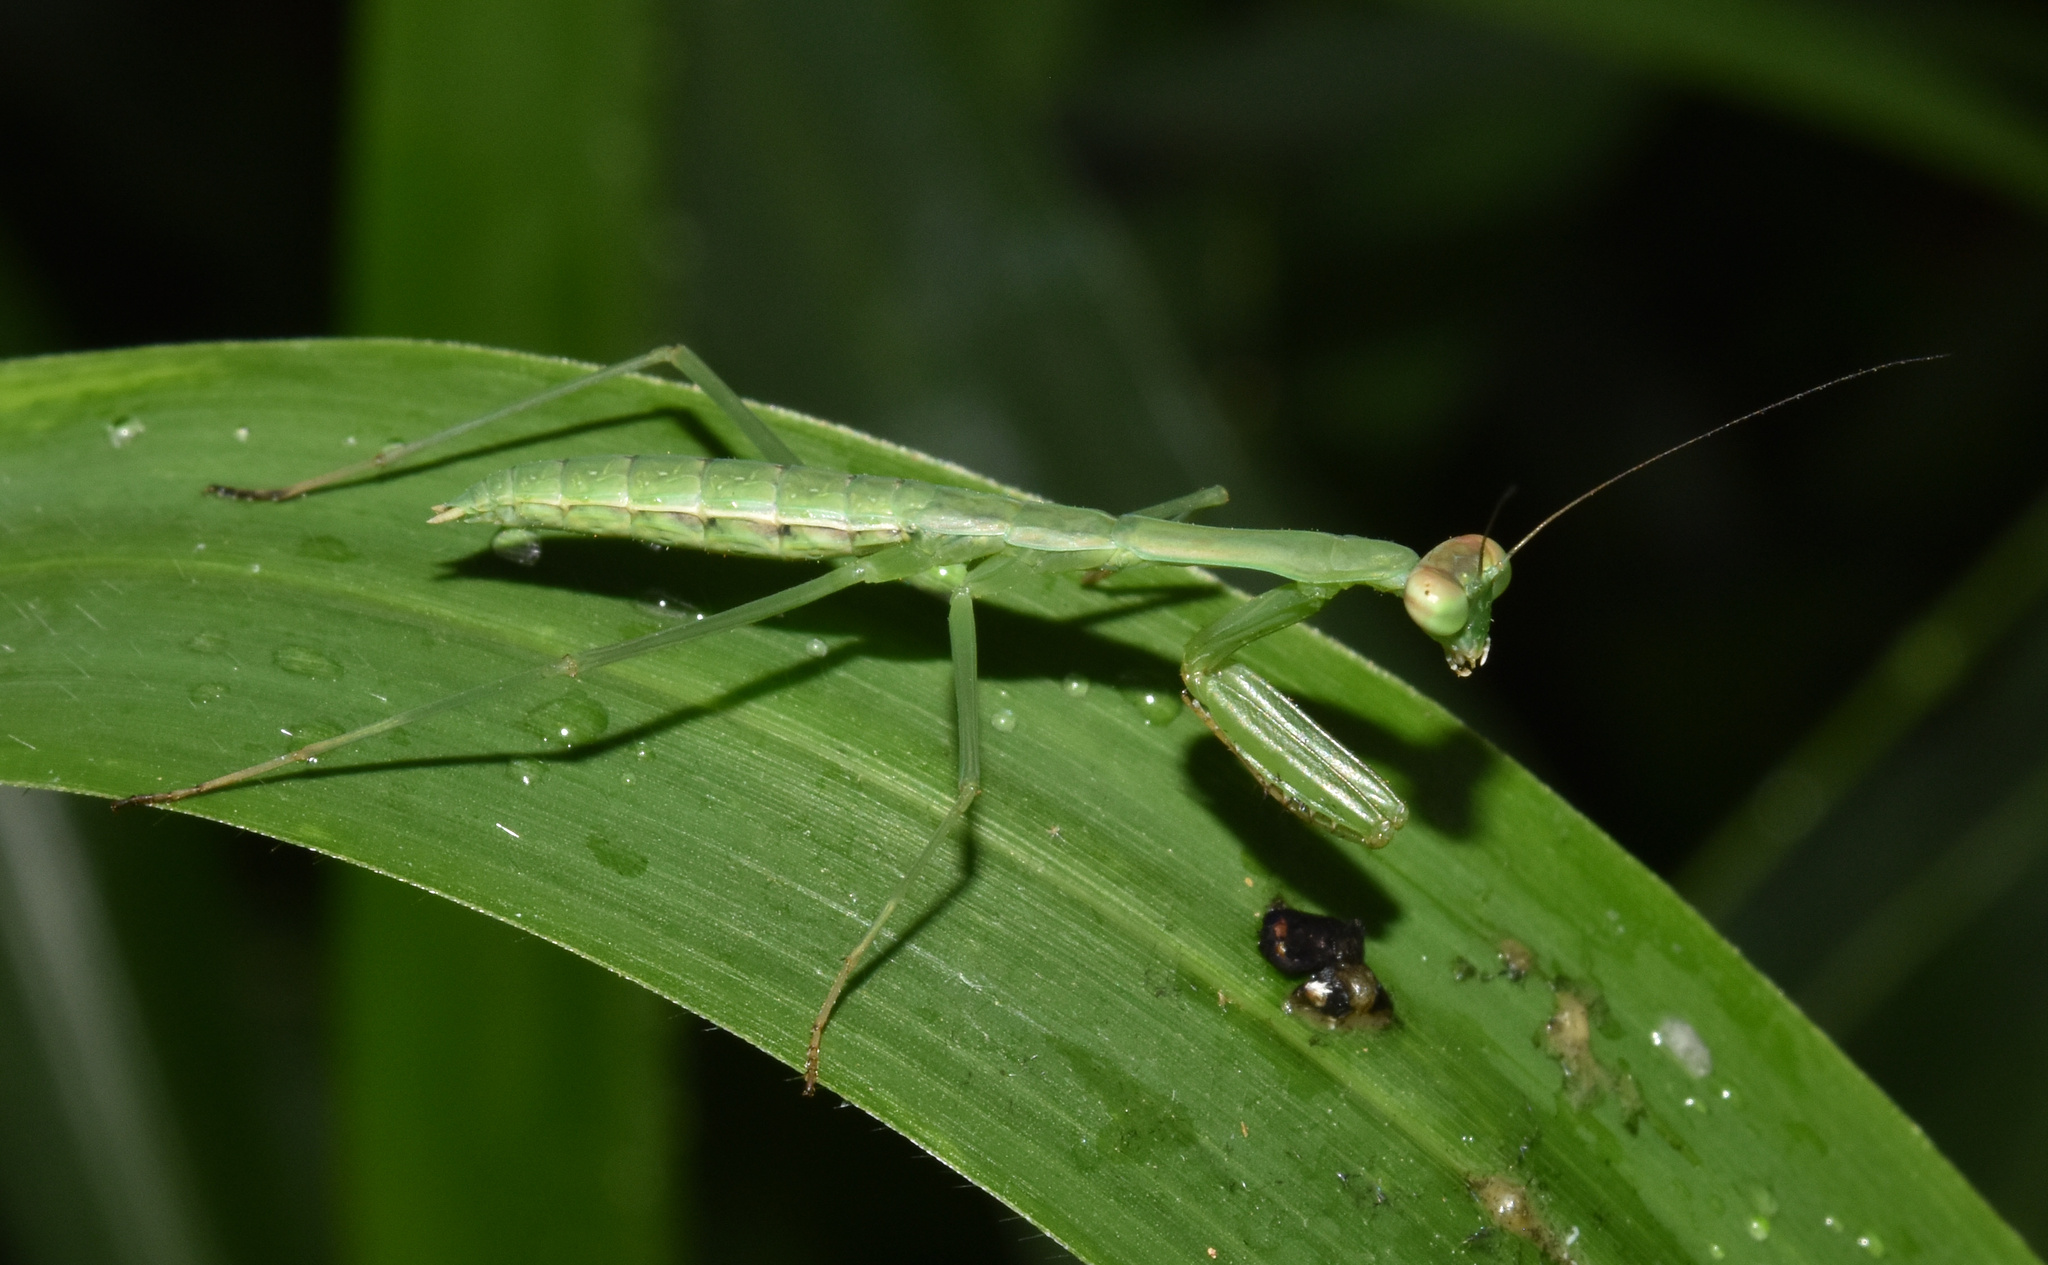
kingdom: Animalia
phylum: Arthropoda
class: Insecta
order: Mantodea
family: Mantidae
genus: Polyspilota
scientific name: Polyspilota aeruginosa
